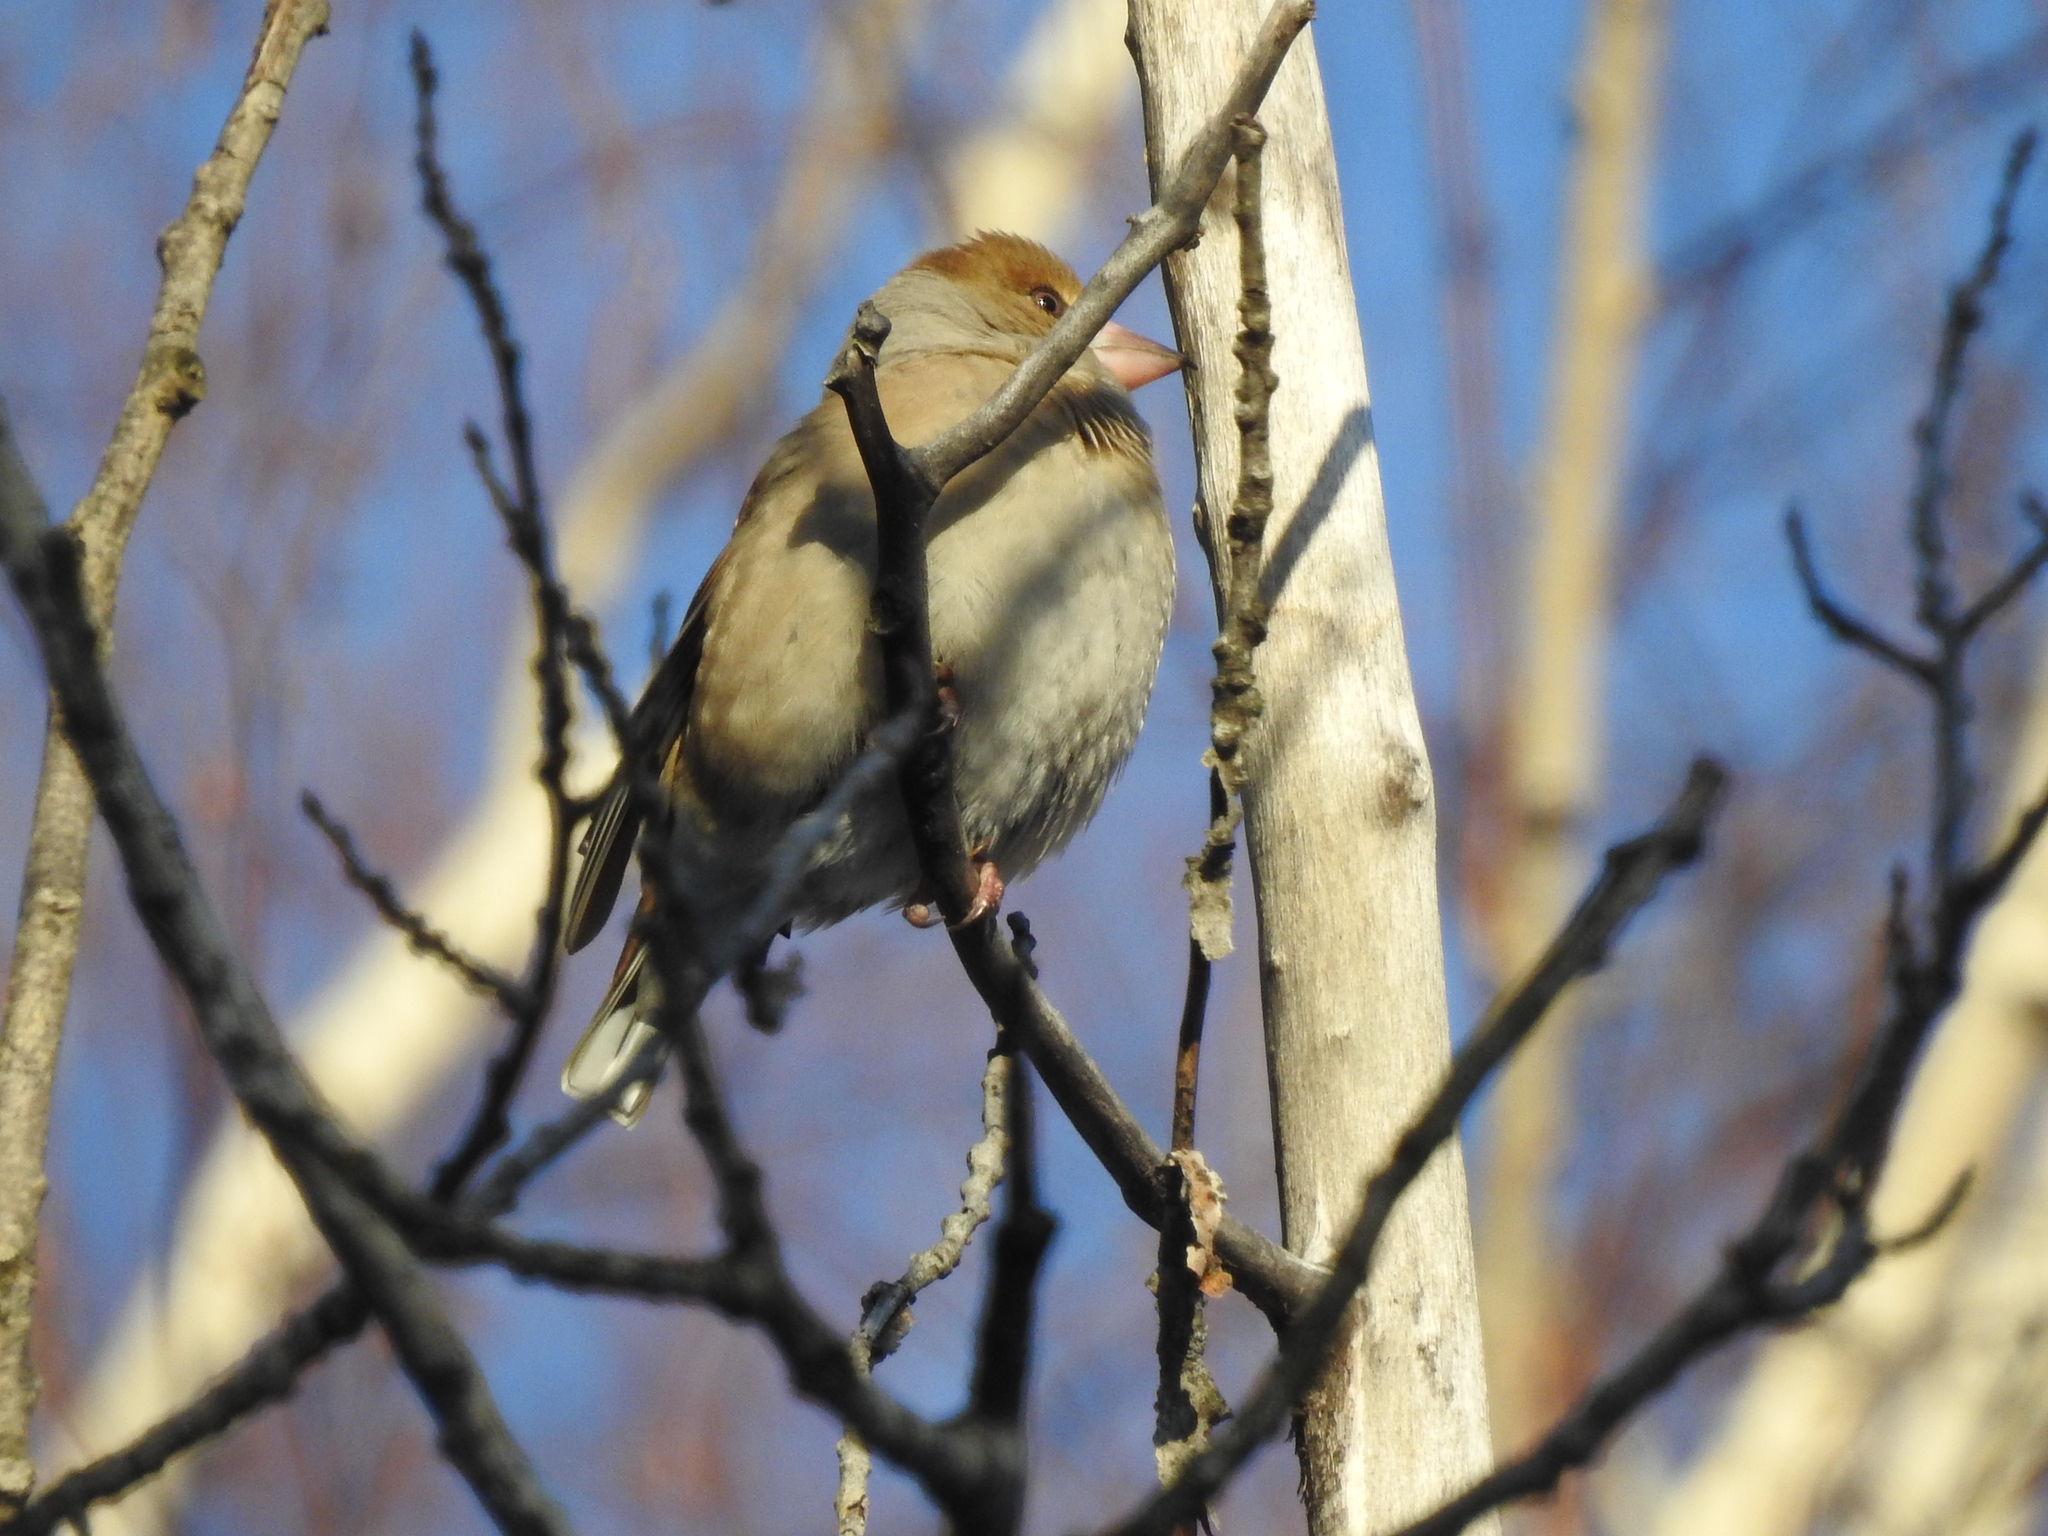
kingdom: Animalia
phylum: Chordata
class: Aves
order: Passeriformes
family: Fringillidae
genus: Coccothraustes
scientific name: Coccothraustes coccothraustes
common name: Hawfinch
